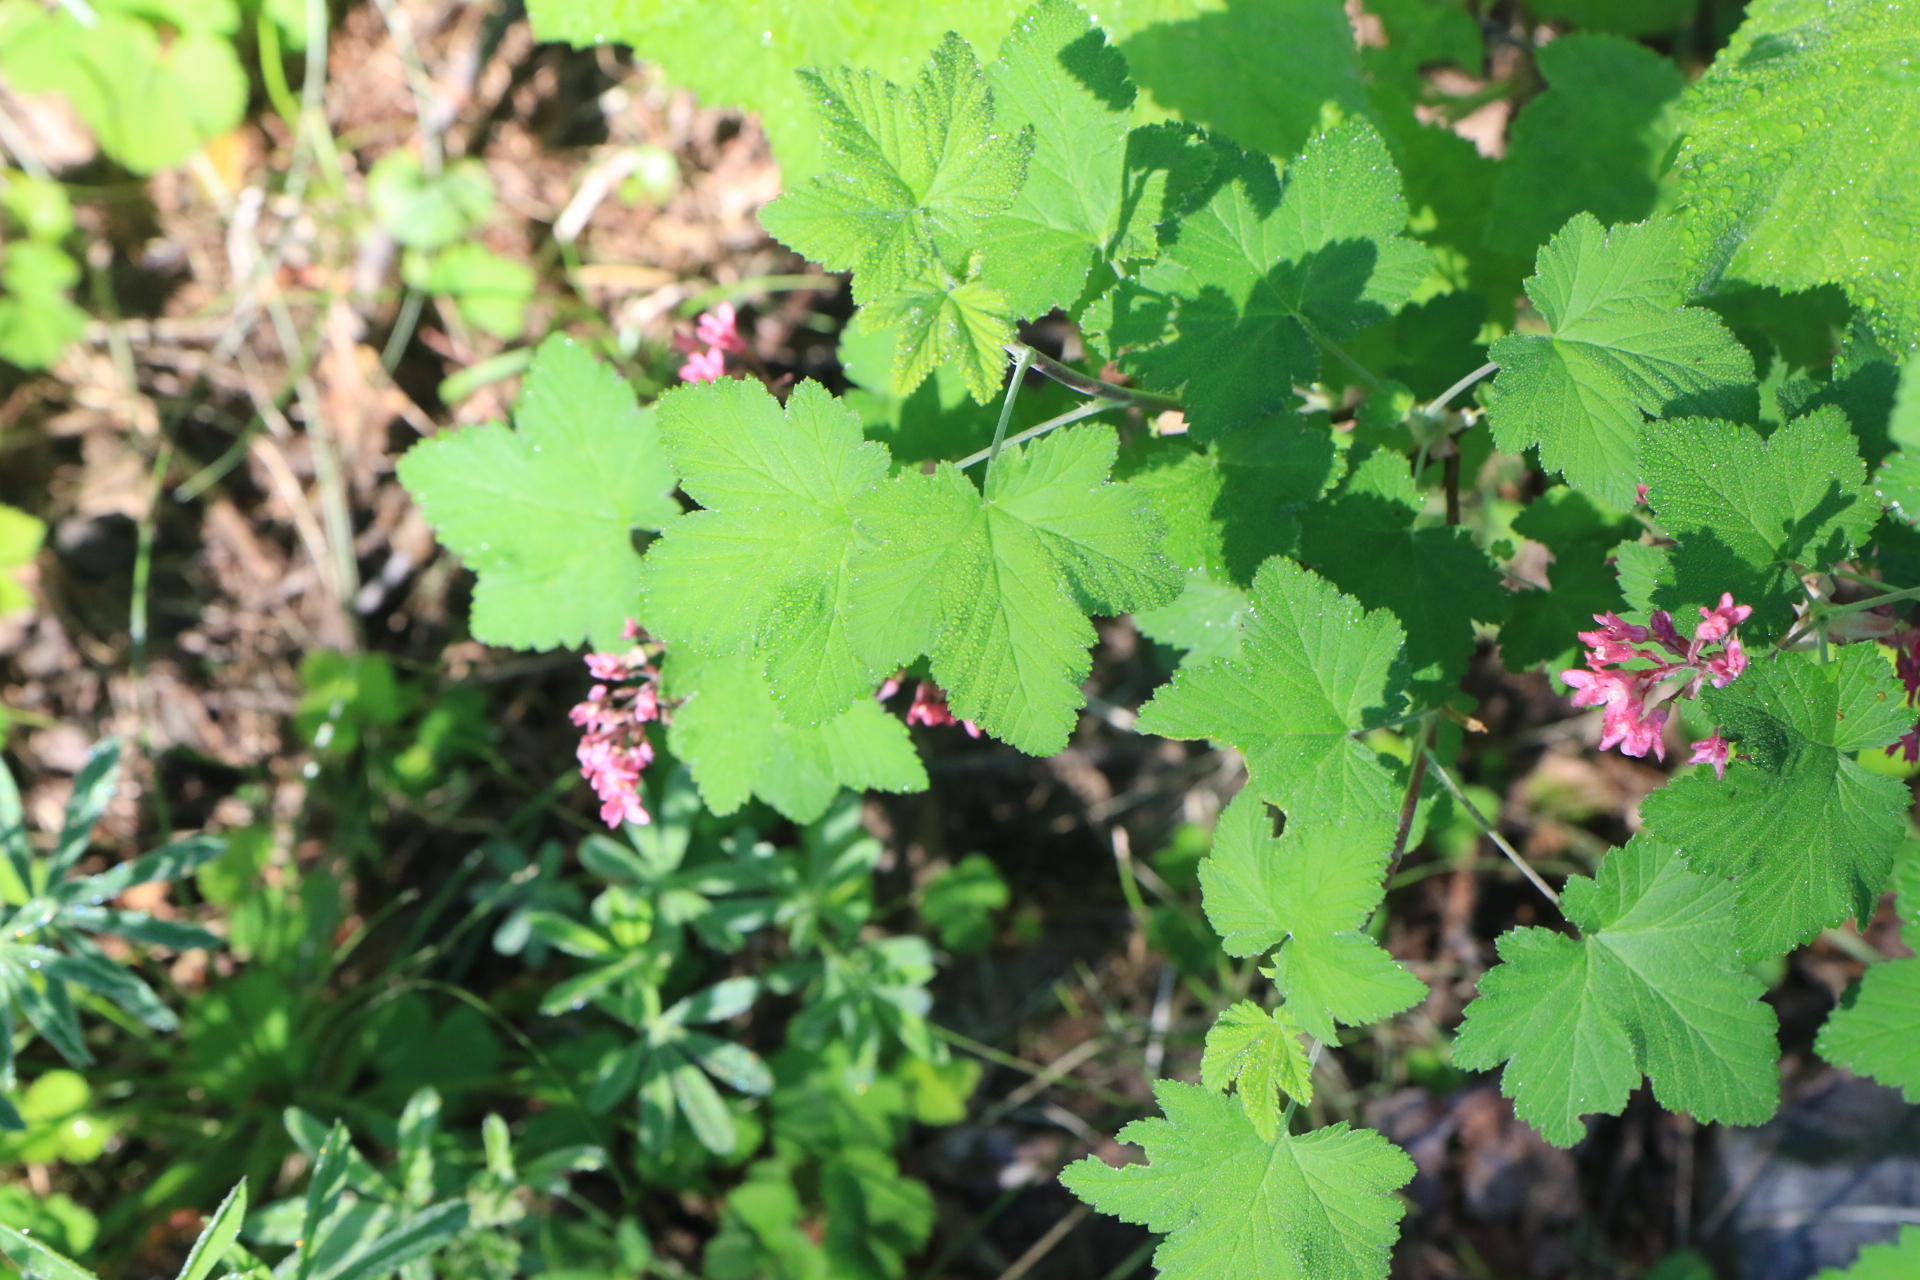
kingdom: Plantae
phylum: Tracheophyta
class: Magnoliopsida
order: Saxifragales
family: Grossulariaceae
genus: Ribes
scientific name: Ribes sanguineum
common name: Flowering currant
